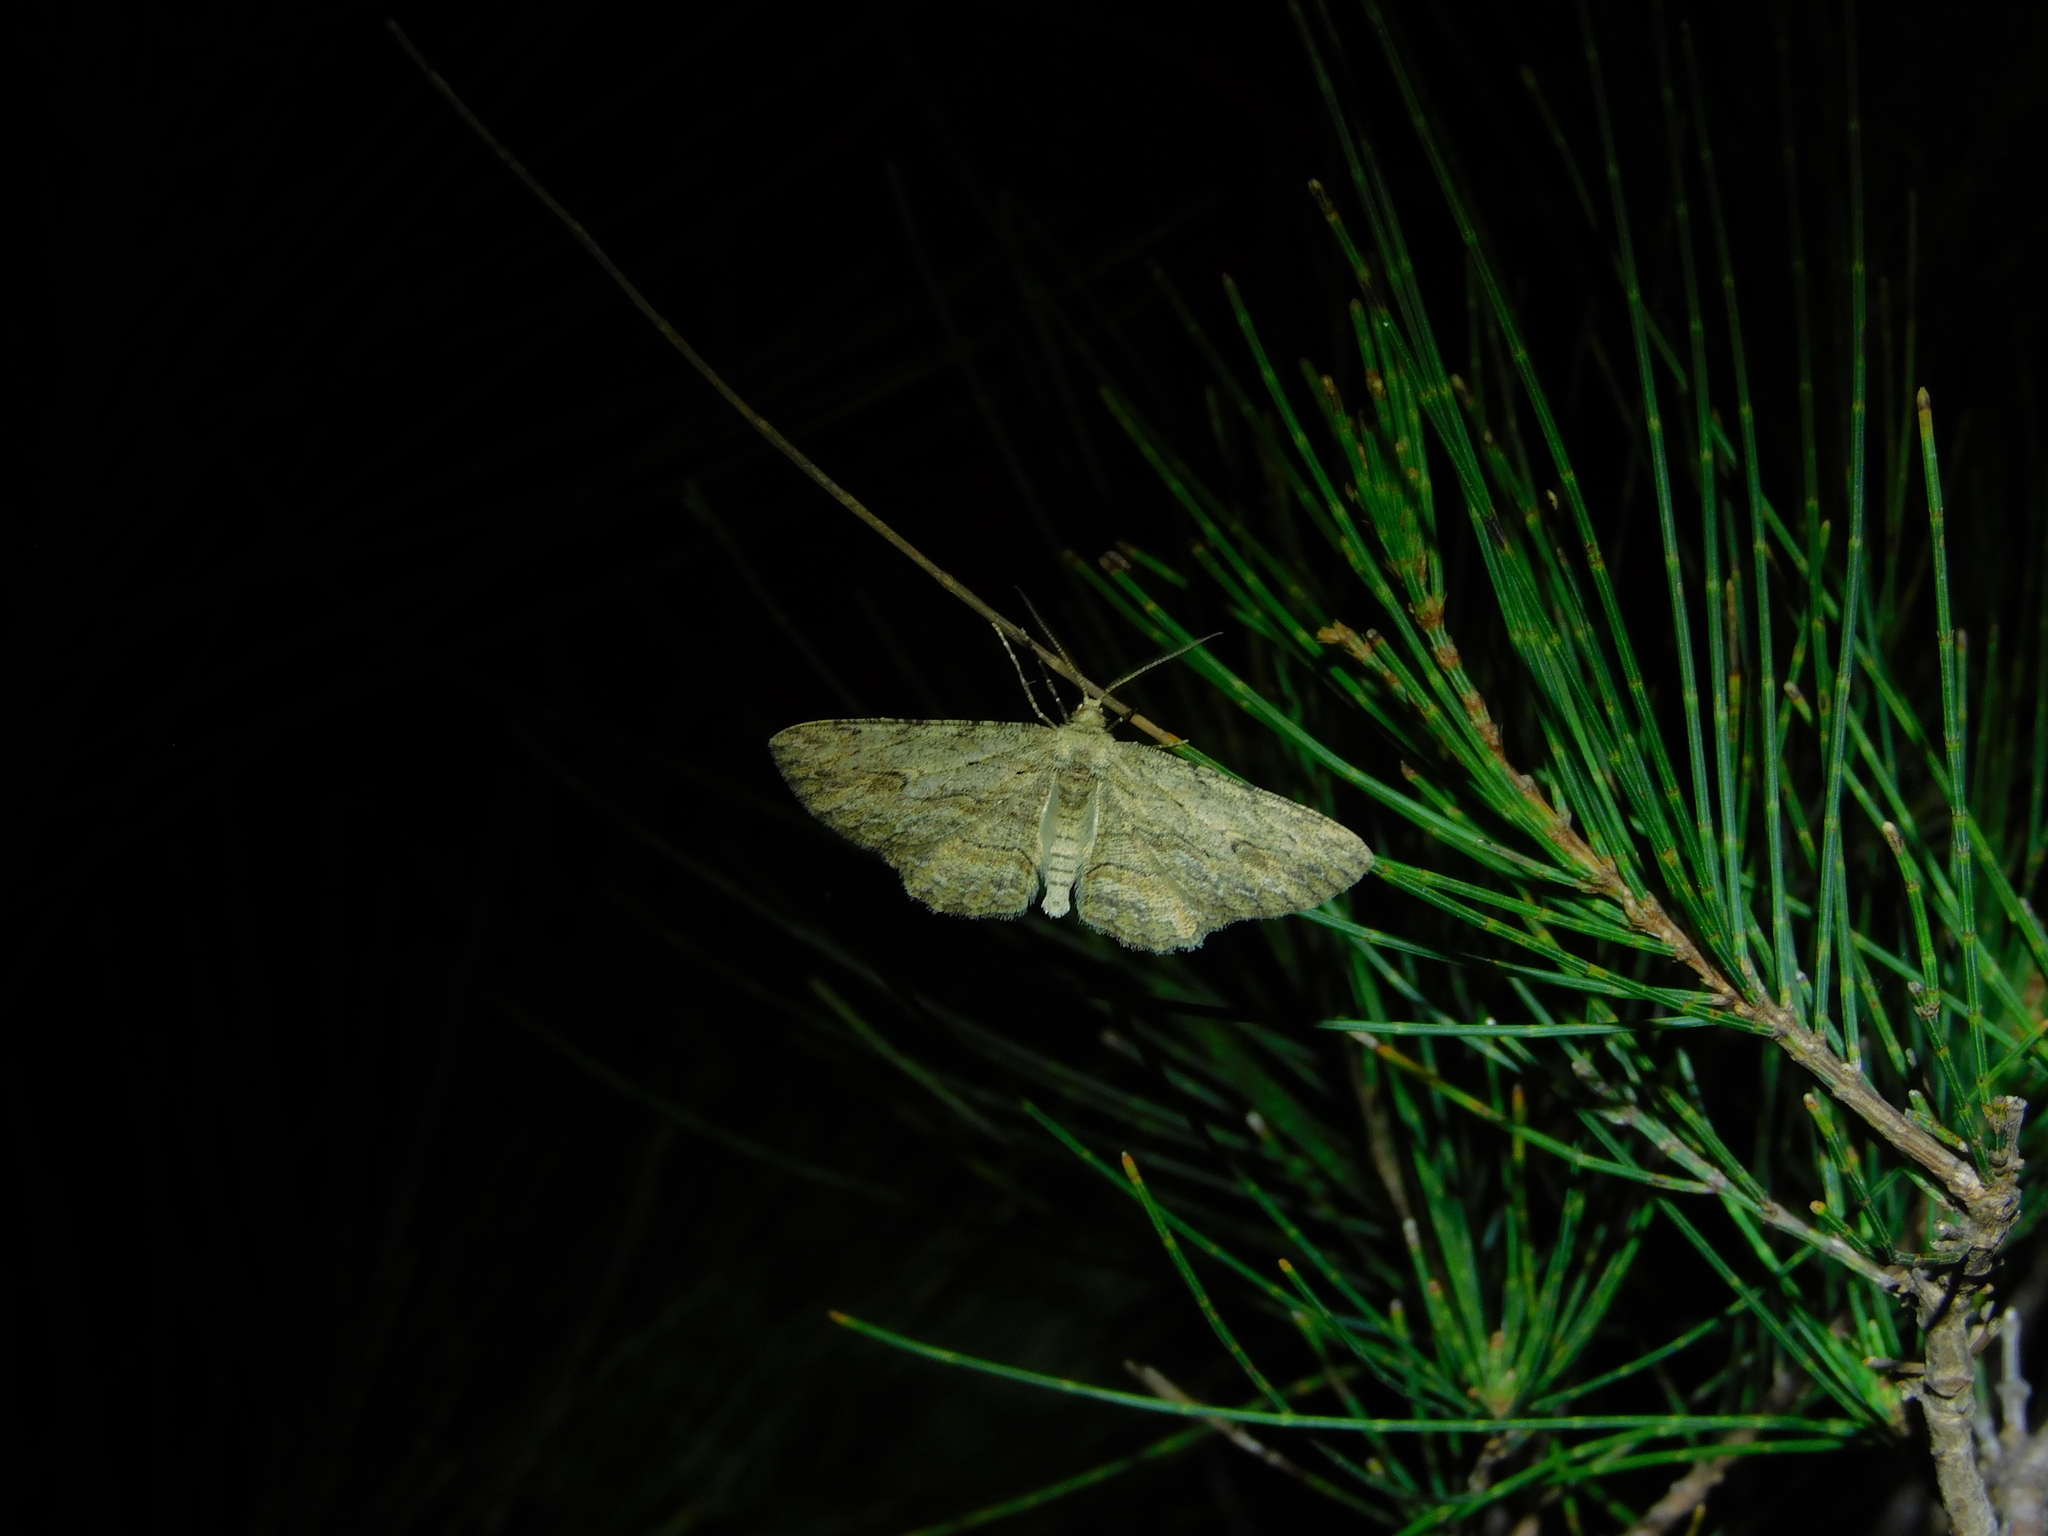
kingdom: Animalia
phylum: Arthropoda
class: Insecta
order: Lepidoptera
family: Geometridae
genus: Ectropis
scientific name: Ectropis excursaria
